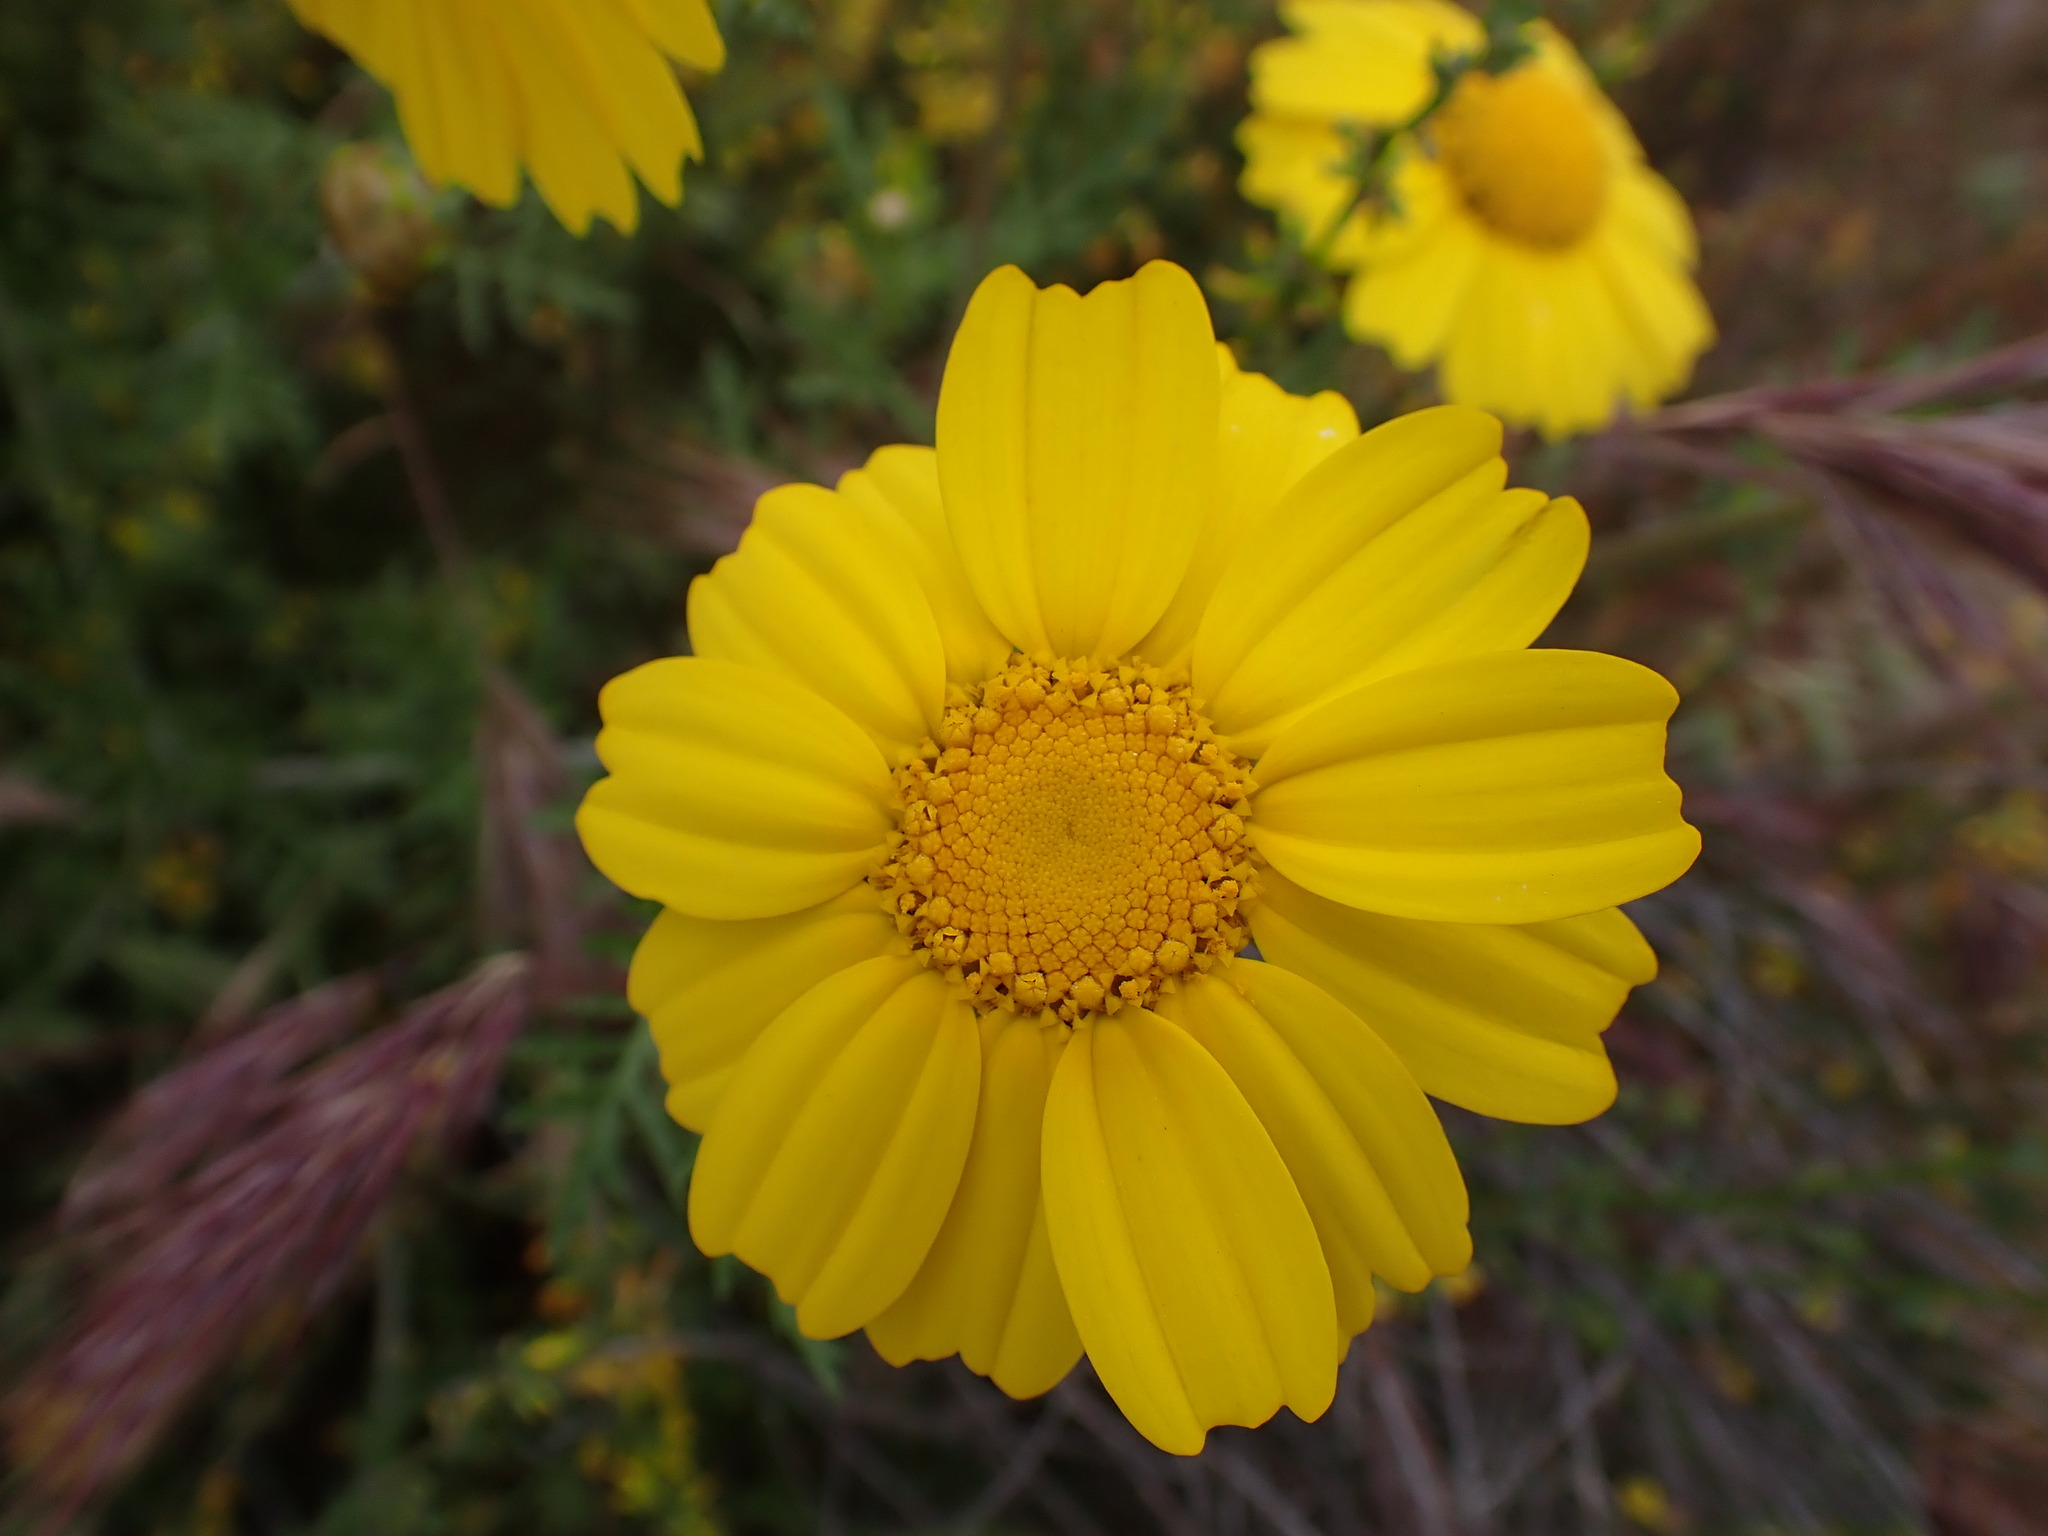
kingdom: Plantae
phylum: Tracheophyta
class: Magnoliopsida
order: Asterales
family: Asteraceae
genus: Glebionis
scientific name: Glebionis coronaria
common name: Crowndaisy
